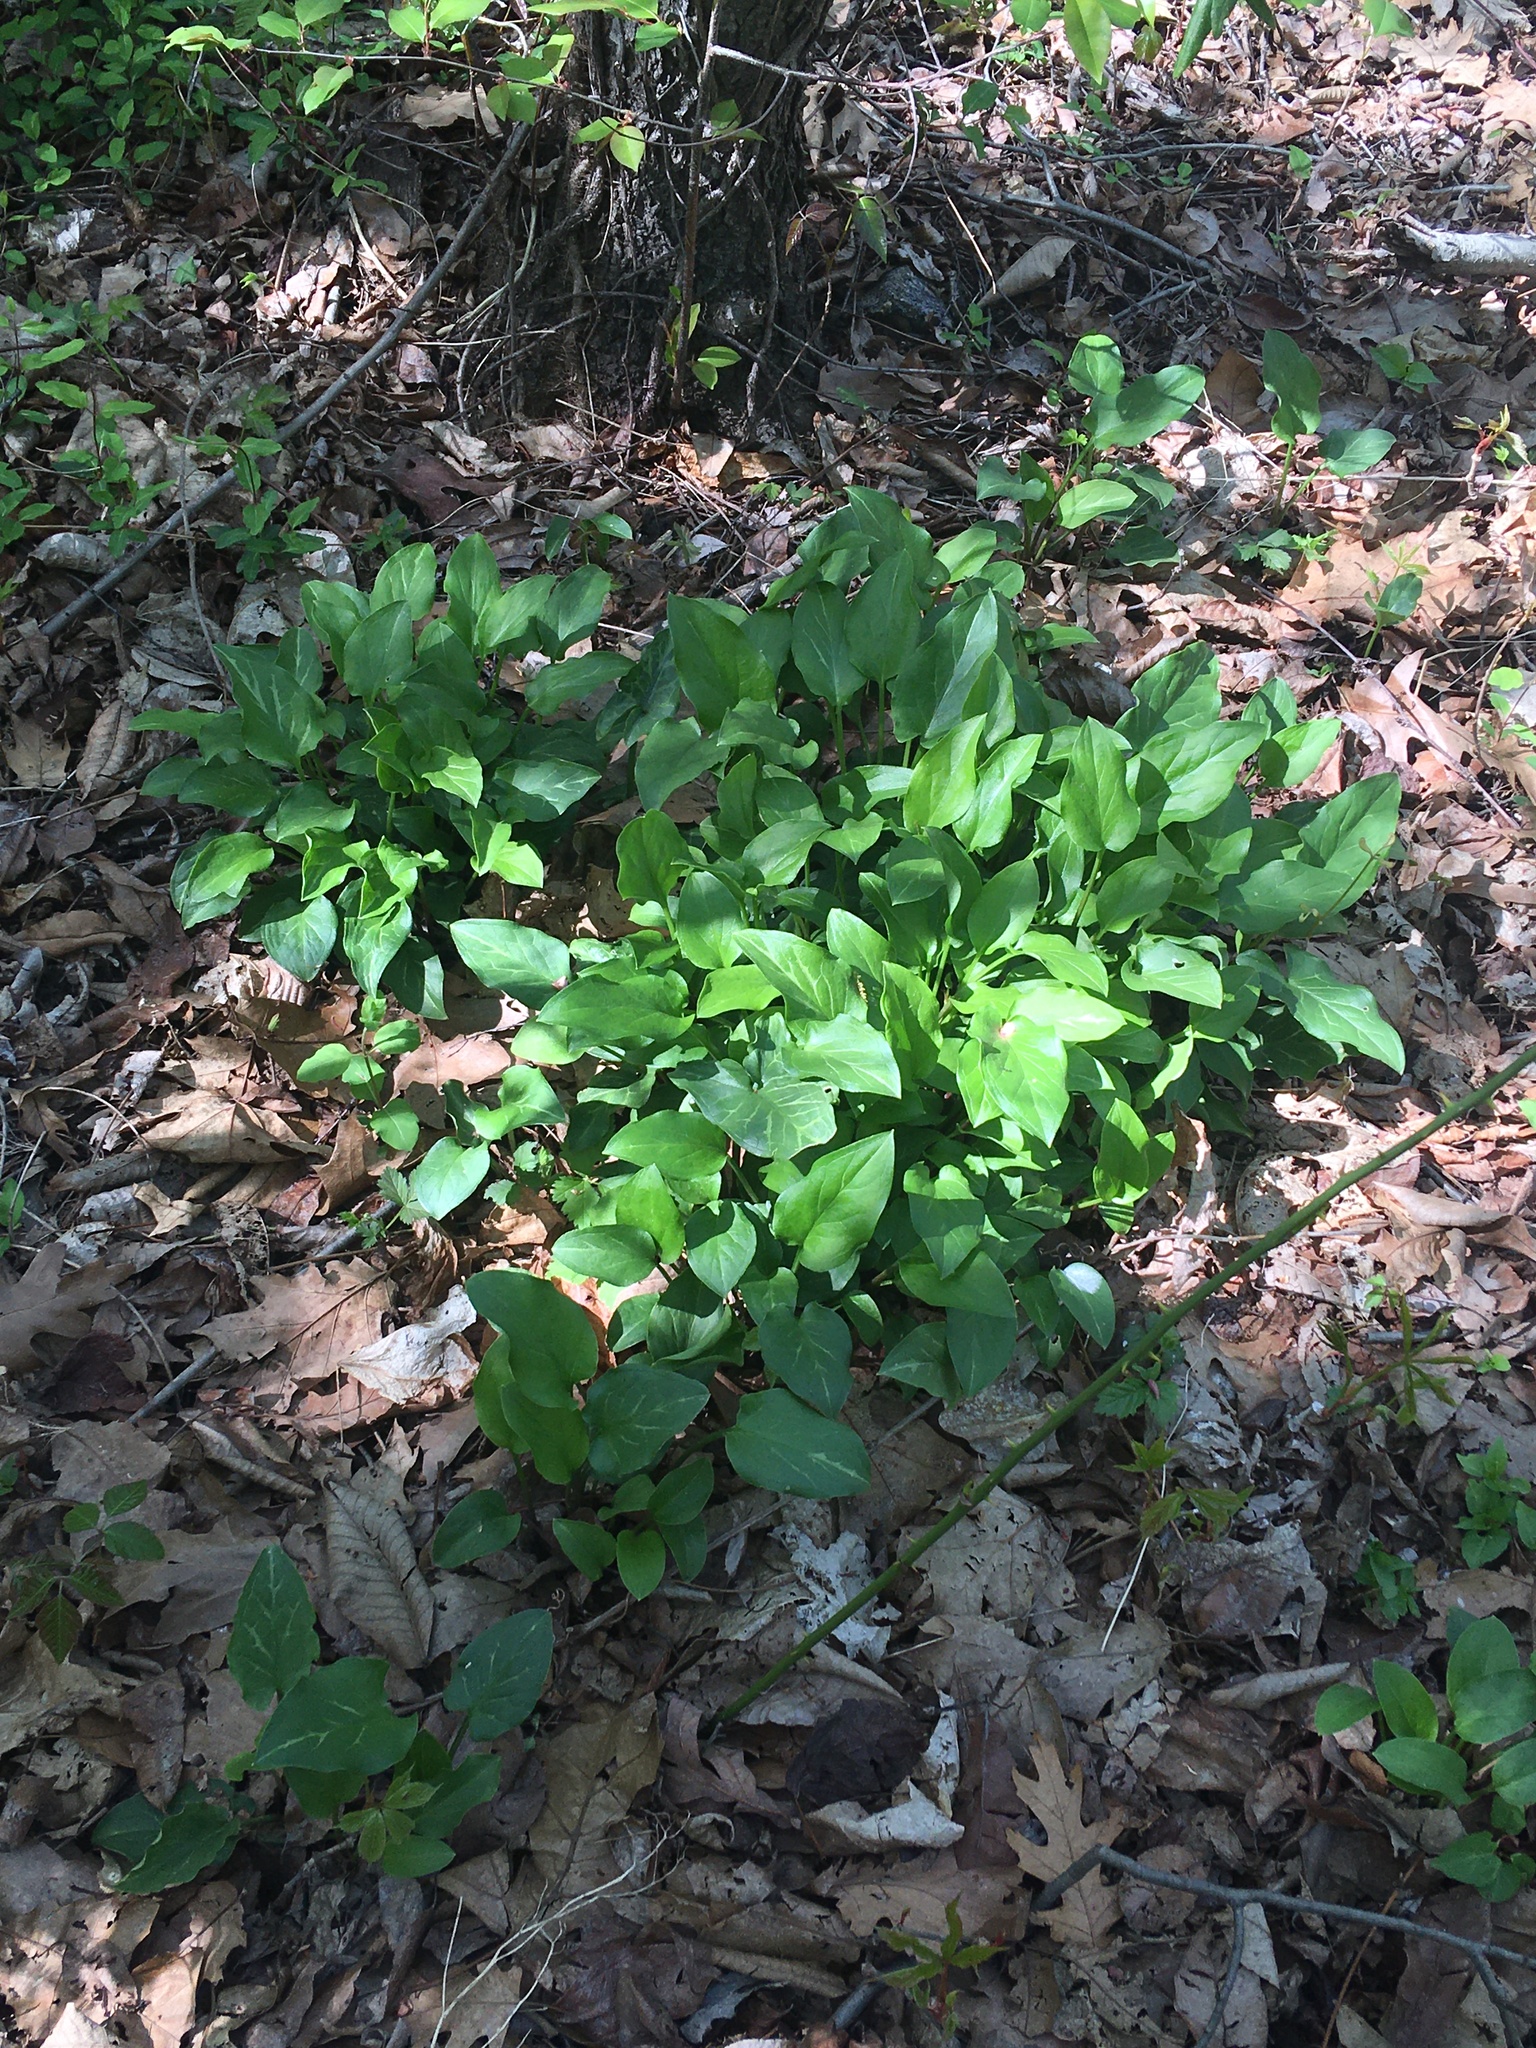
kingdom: Plantae
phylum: Tracheophyta
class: Liliopsida
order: Alismatales
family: Araceae
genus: Arum
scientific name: Arum italicum
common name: Italian lords-and-ladies
